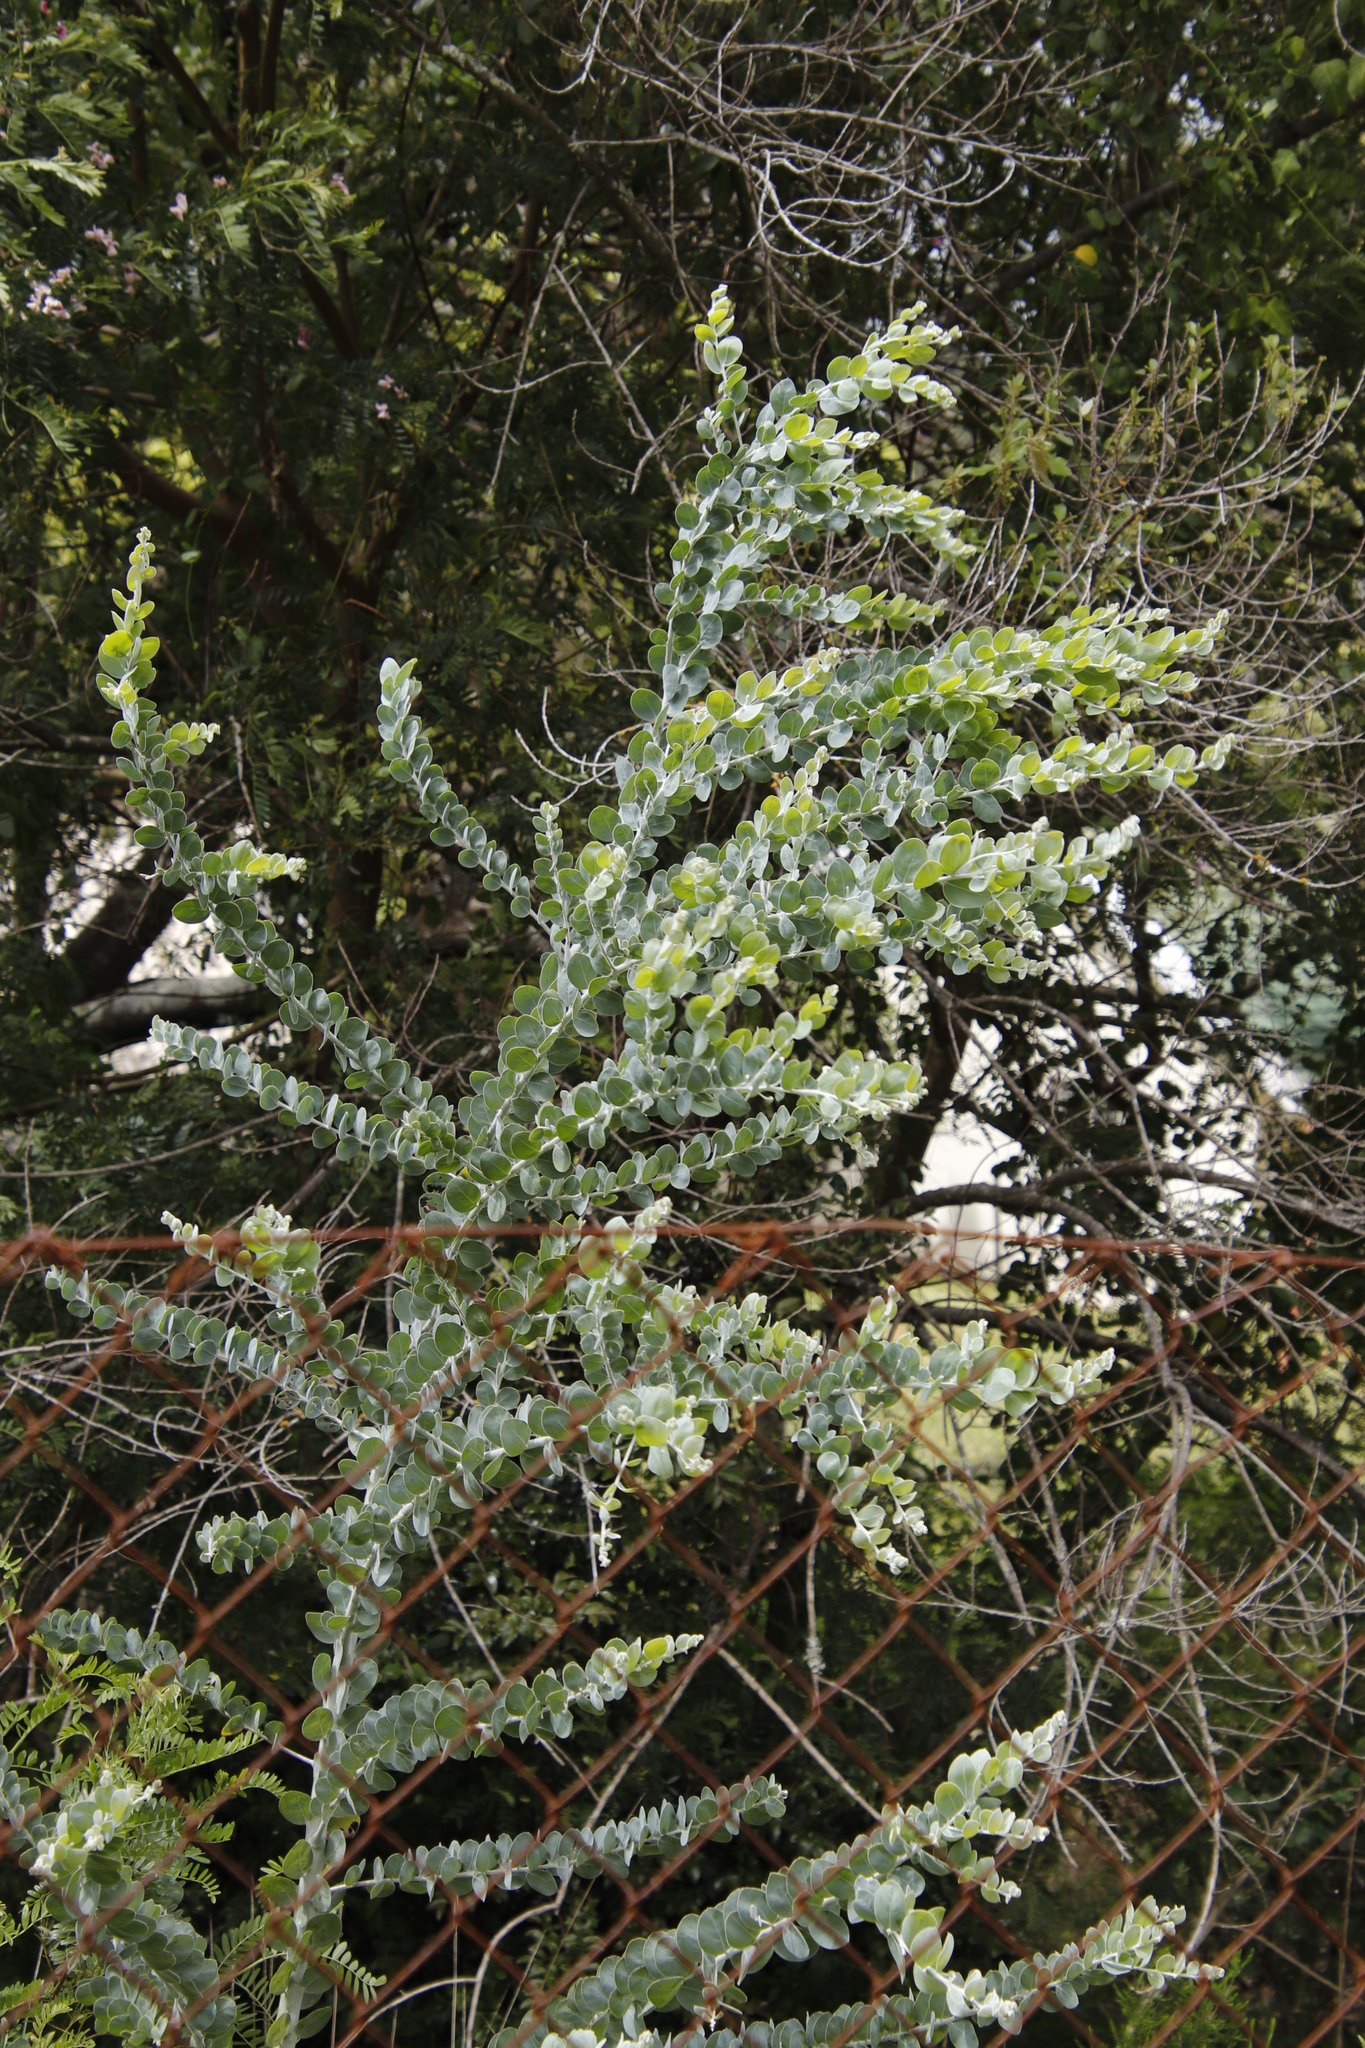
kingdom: Plantae
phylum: Tracheophyta
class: Magnoliopsida
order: Fabales
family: Fabaceae
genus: Acacia
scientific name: Acacia podalyriifolia
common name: Pearl wattle
